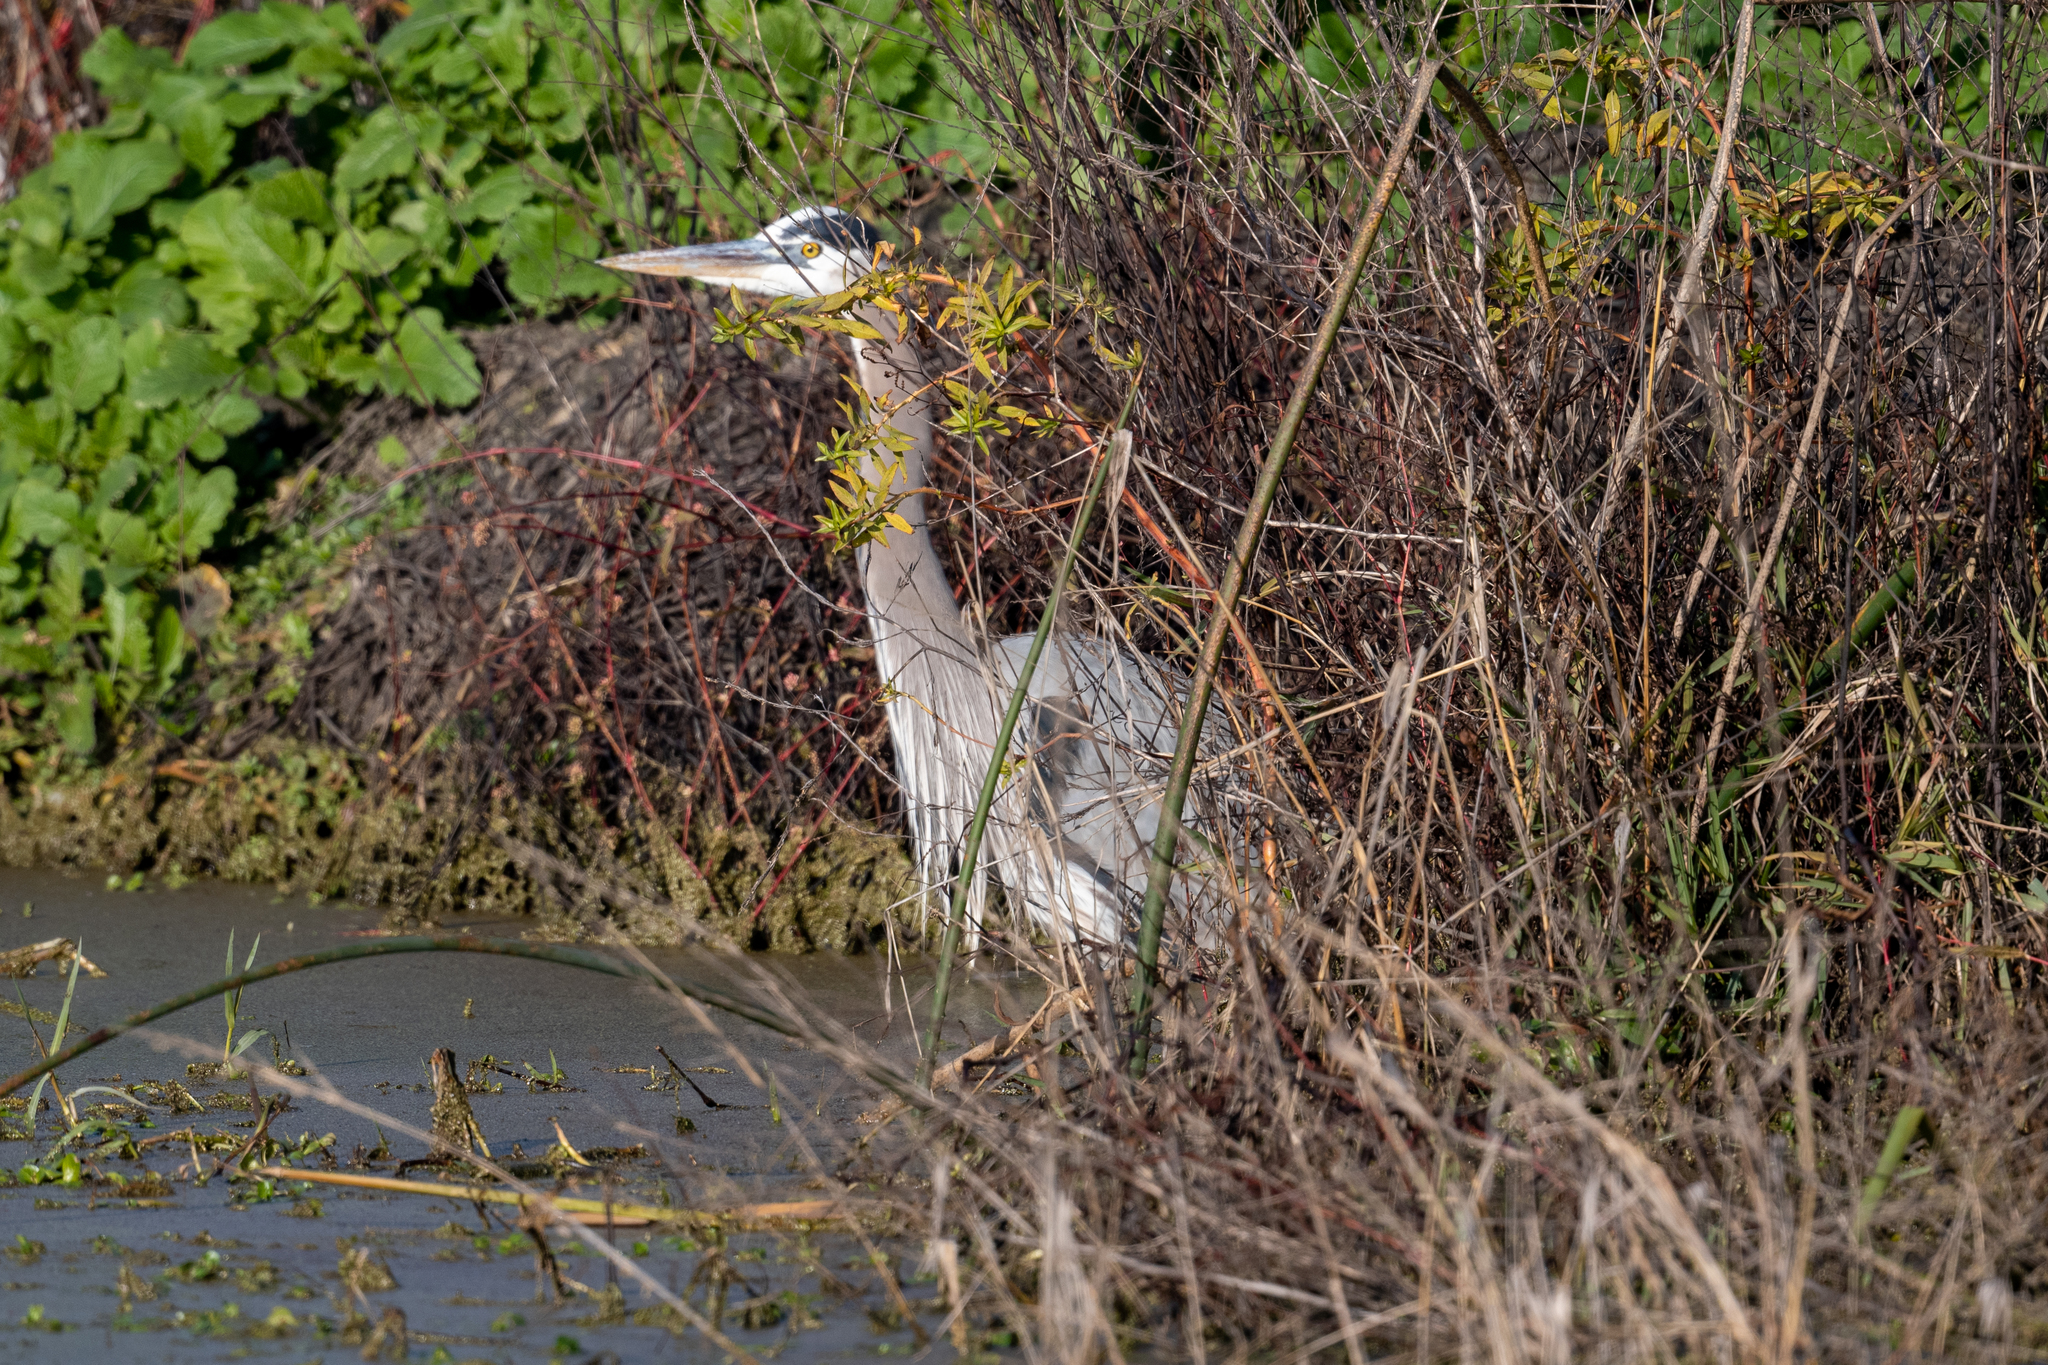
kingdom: Animalia
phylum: Chordata
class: Aves
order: Pelecaniformes
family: Ardeidae
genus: Ardea
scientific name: Ardea herodias
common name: Great blue heron
